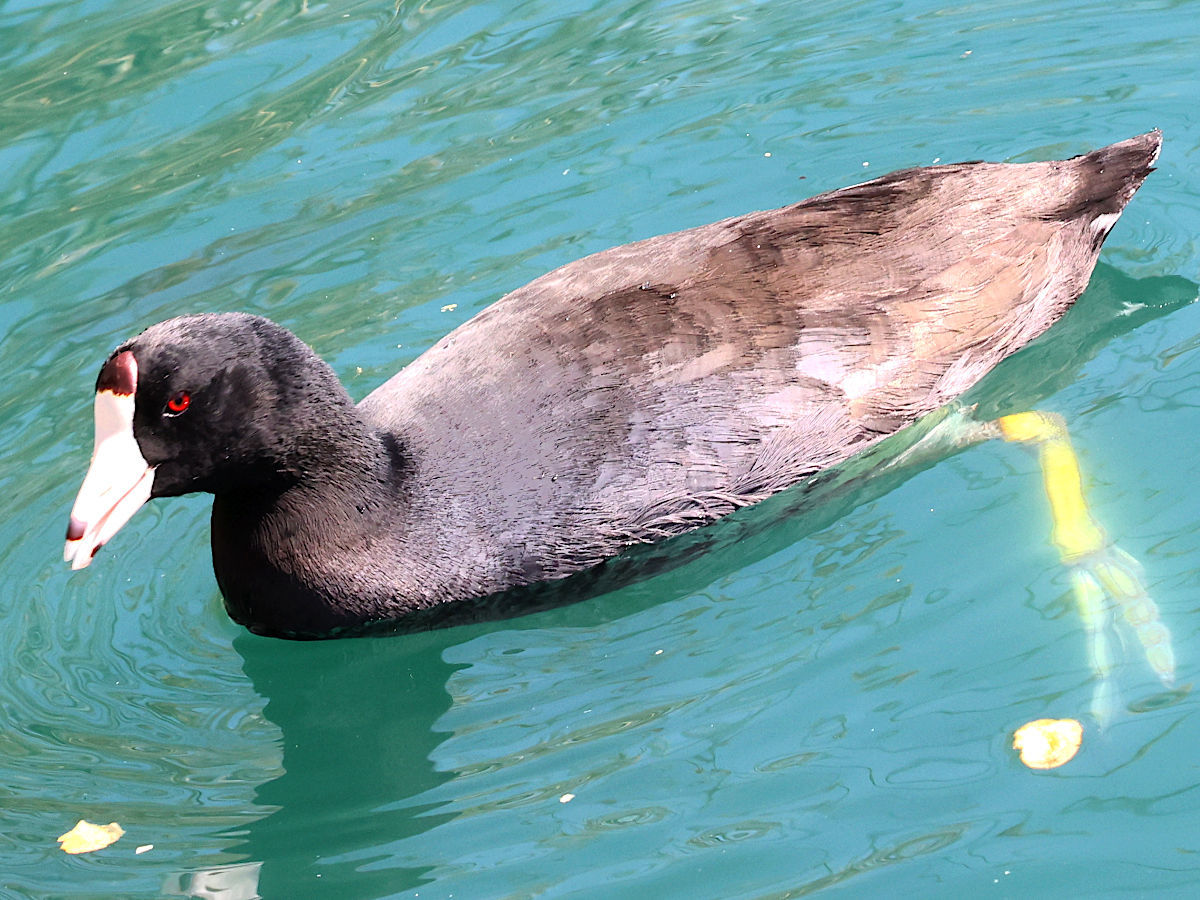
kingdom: Animalia
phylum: Chordata
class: Aves
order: Gruiformes
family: Rallidae
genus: Fulica
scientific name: Fulica americana
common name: American coot
